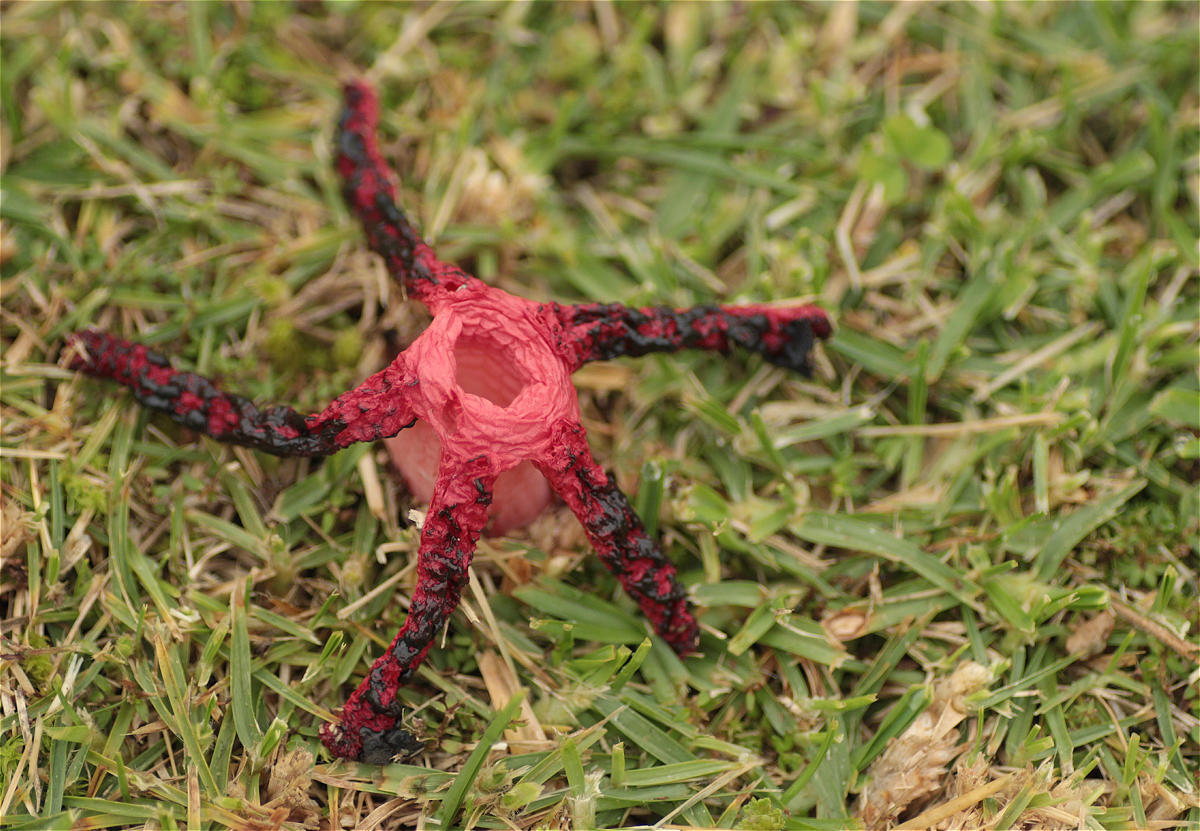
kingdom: Fungi
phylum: Basidiomycota
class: Agaricomycetes
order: Phallales
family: Phallaceae
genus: Clathrus
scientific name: Clathrus archeri
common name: Devil's fingers
